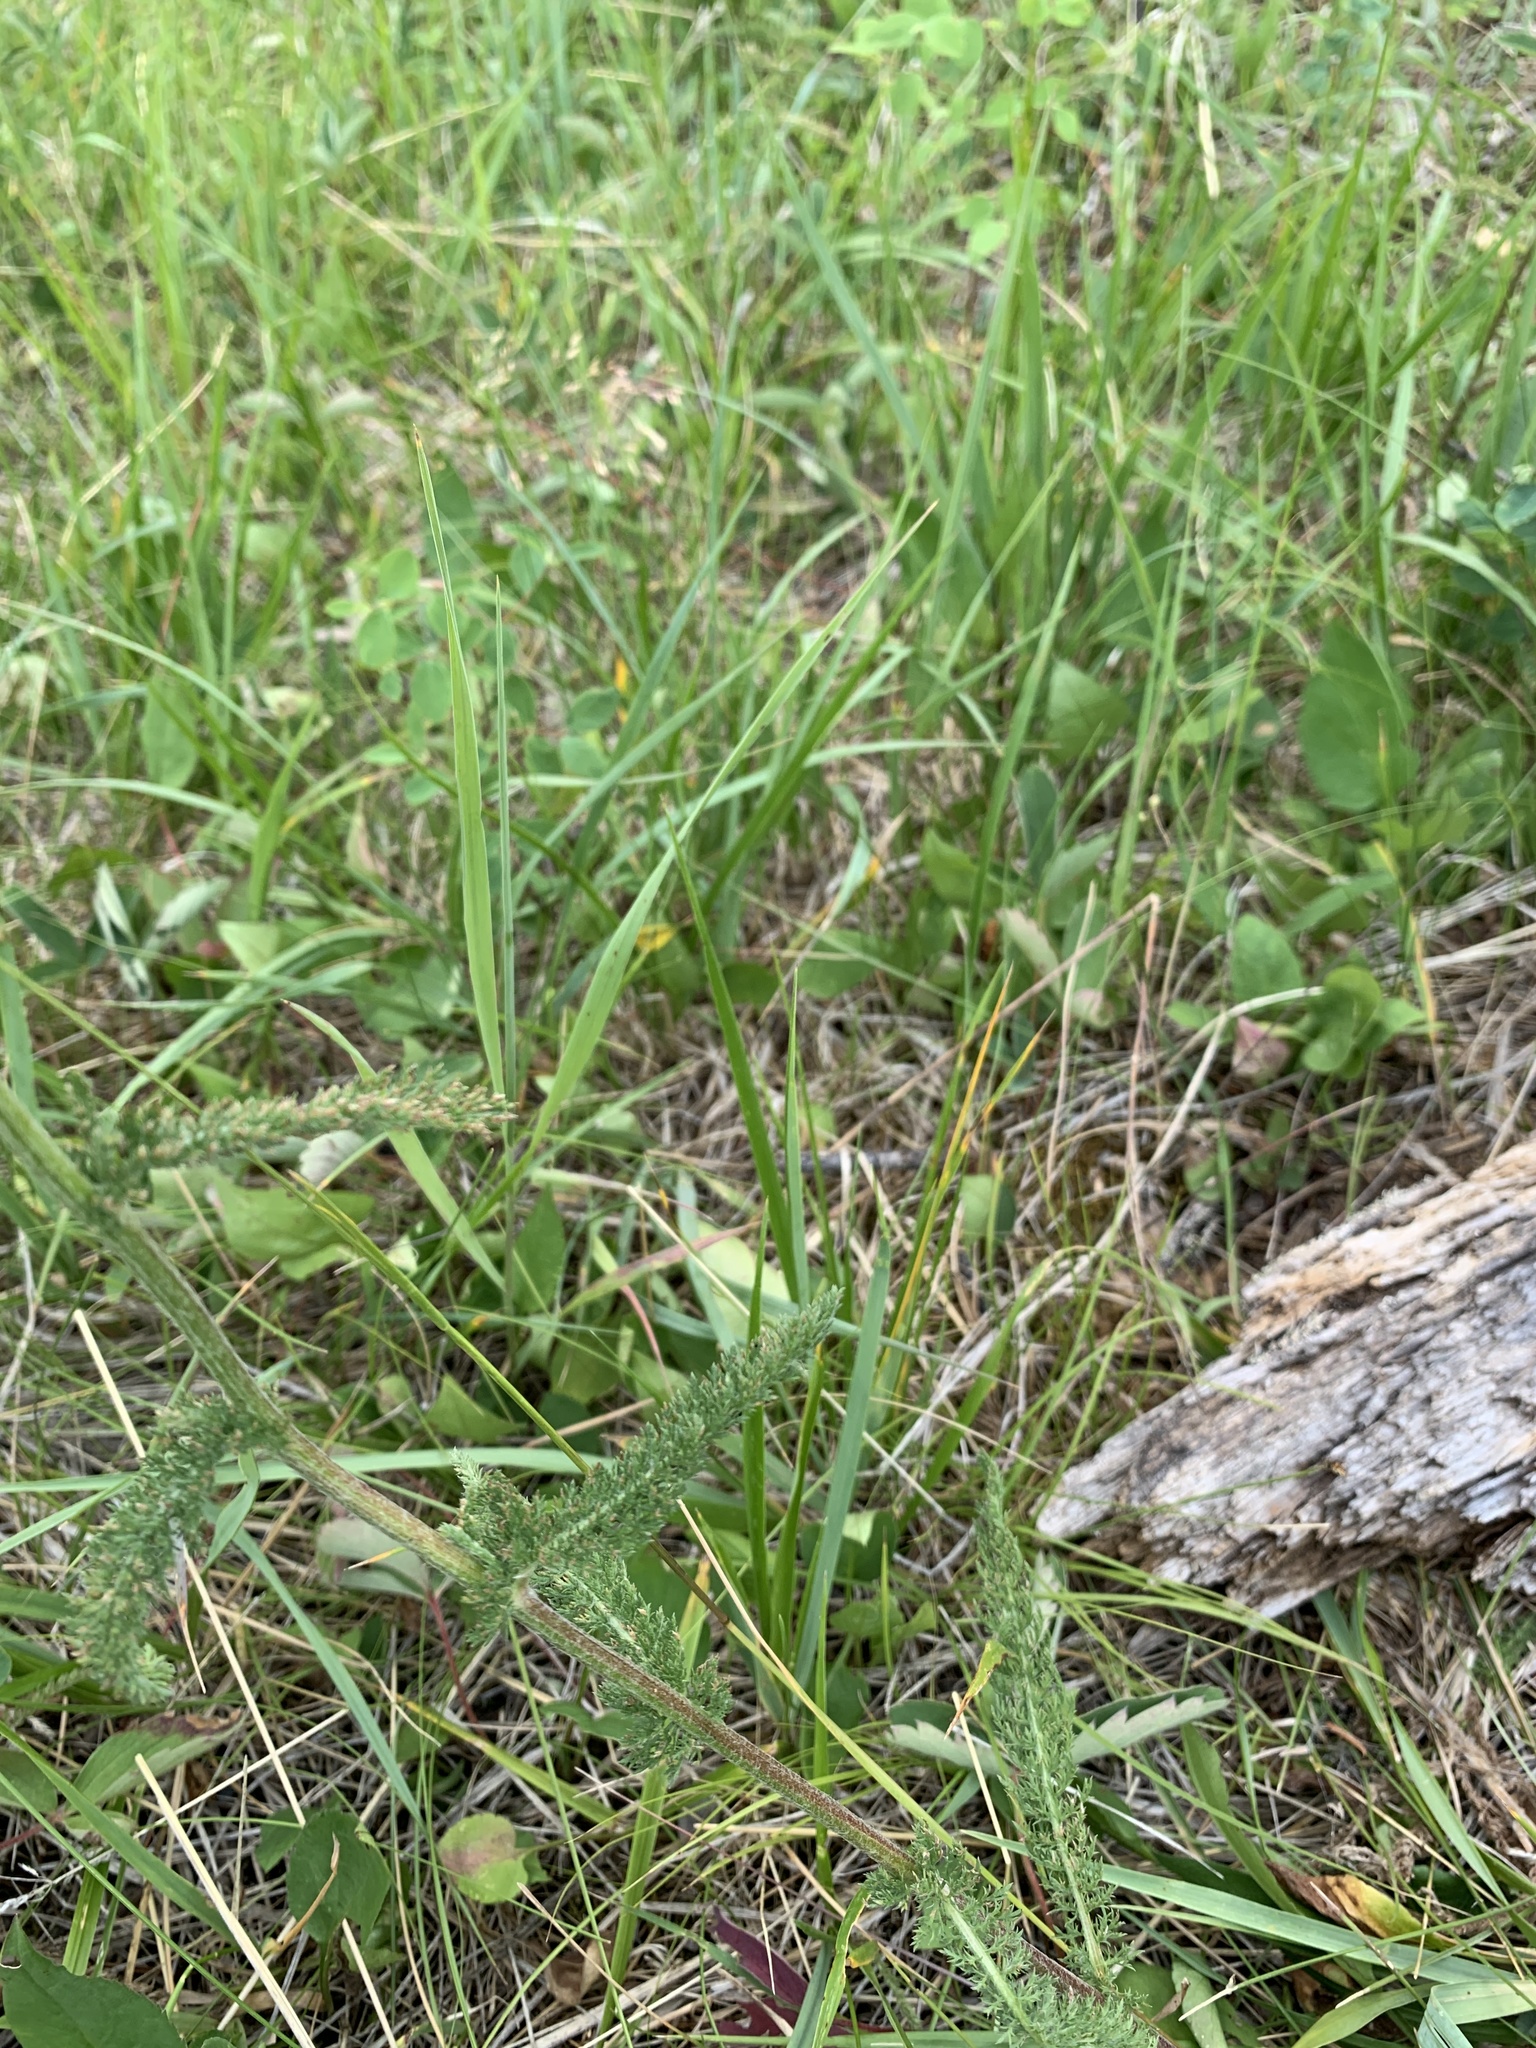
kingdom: Plantae
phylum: Tracheophyta
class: Magnoliopsida
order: Asterales
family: Asteraceae
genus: Achillea
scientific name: Achillea millefolium
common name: Yarrow
